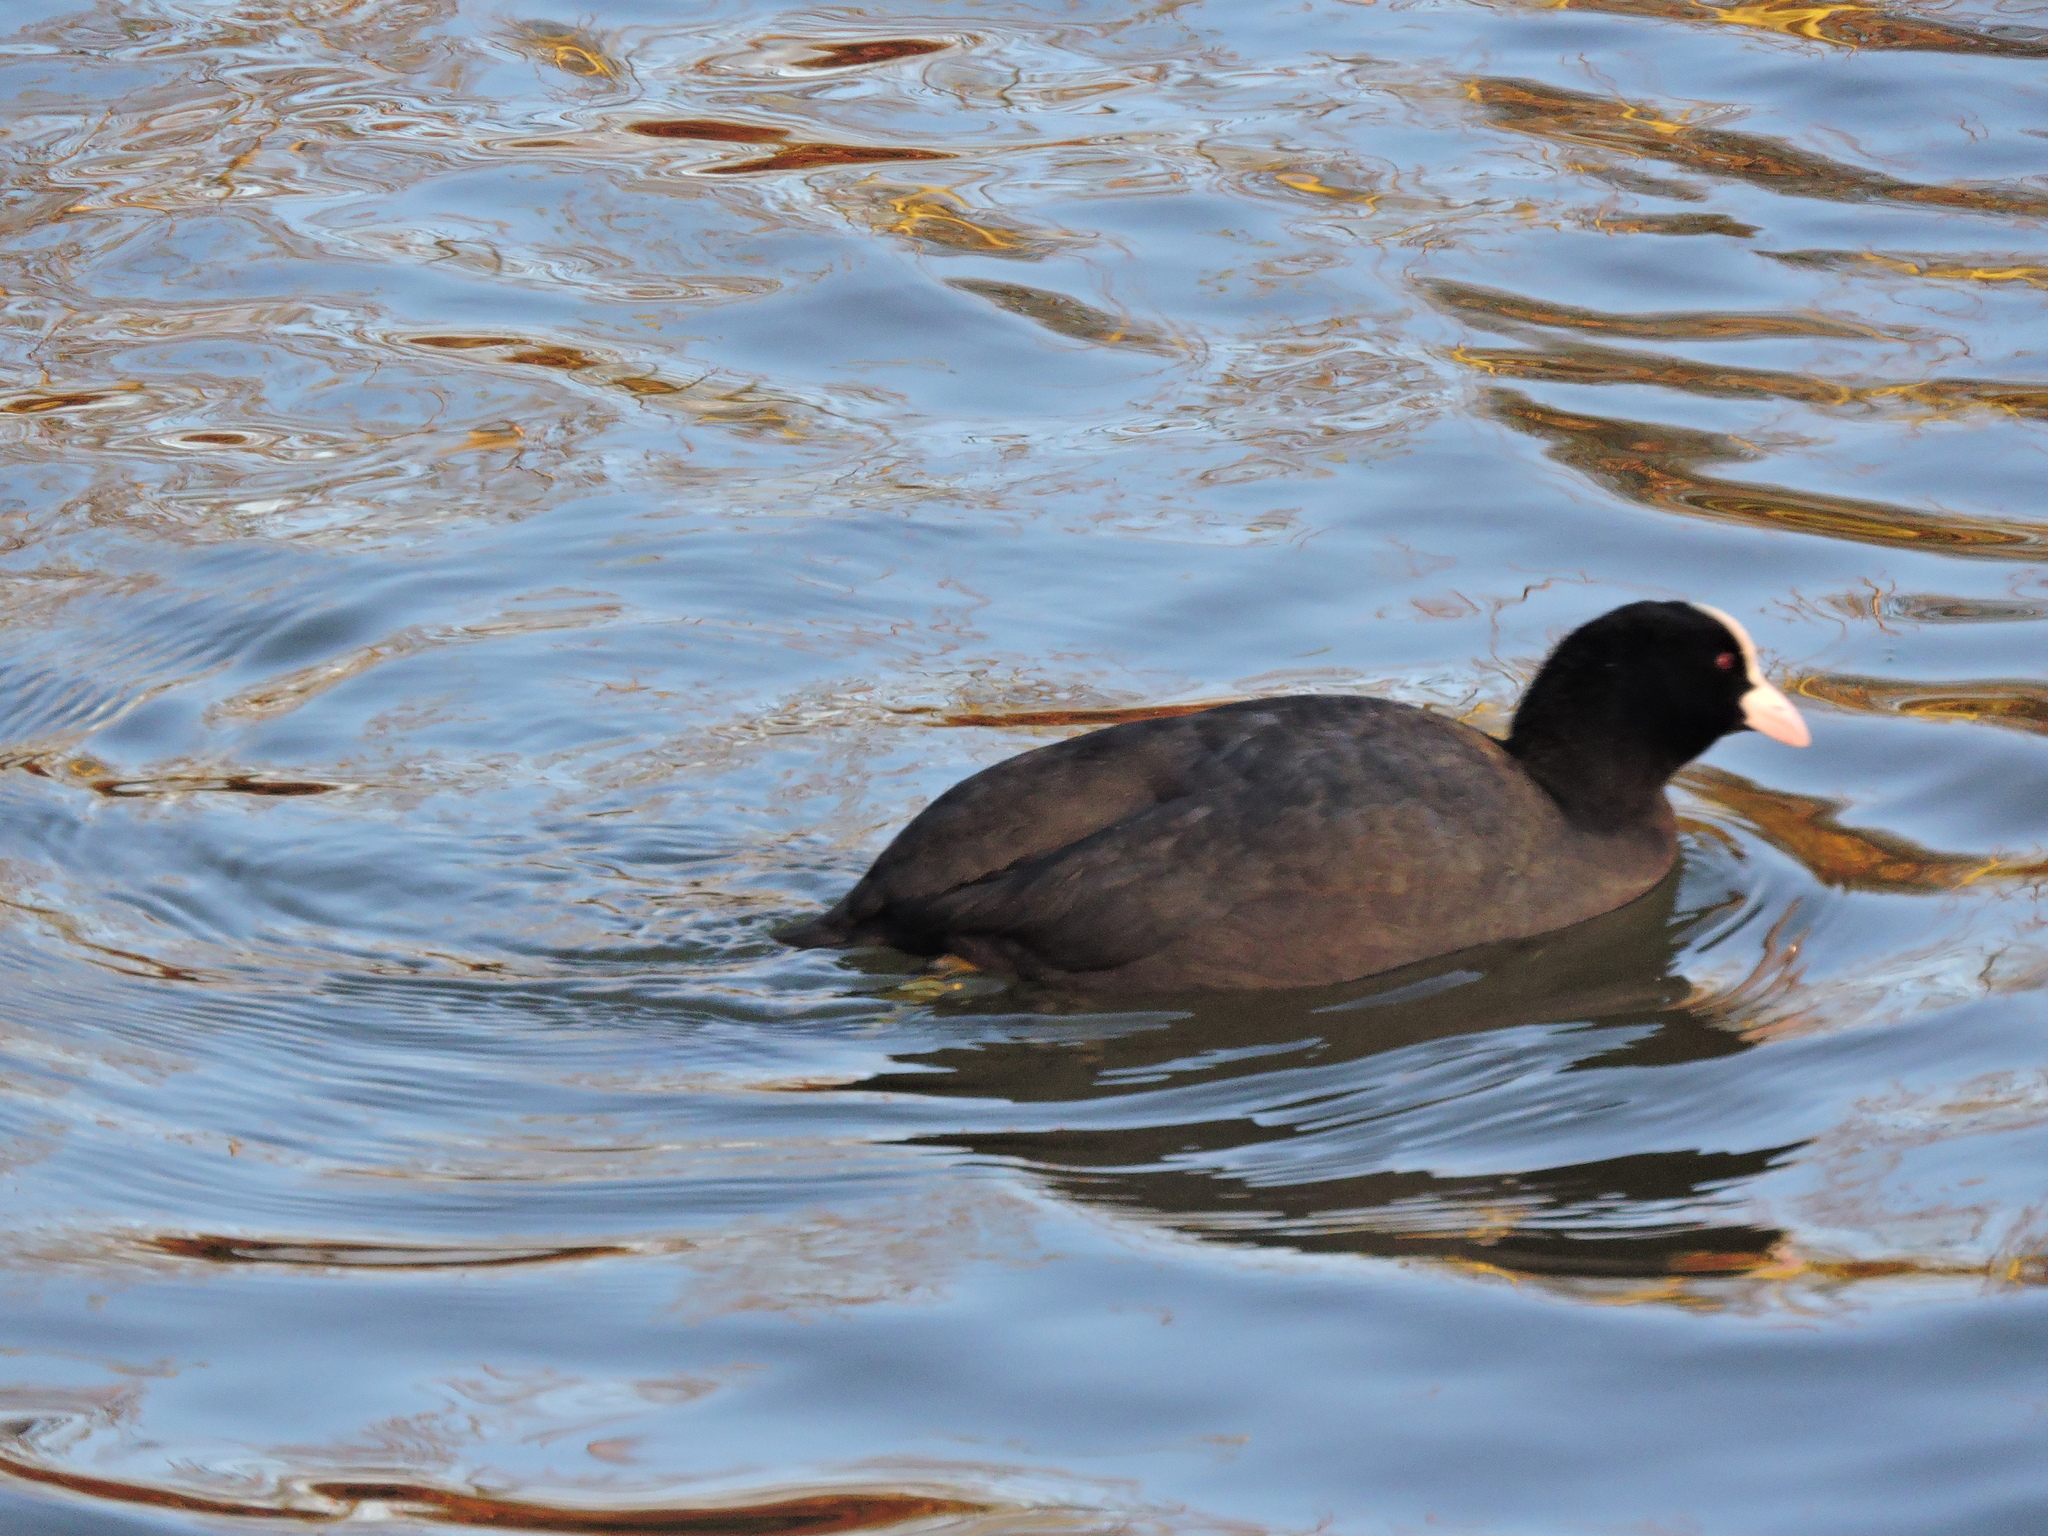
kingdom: Animalia
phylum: Chordata
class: Aves
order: Gruiformes
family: Rallidae
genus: Fulica
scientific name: Fulica atra
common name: Eurasian coot
